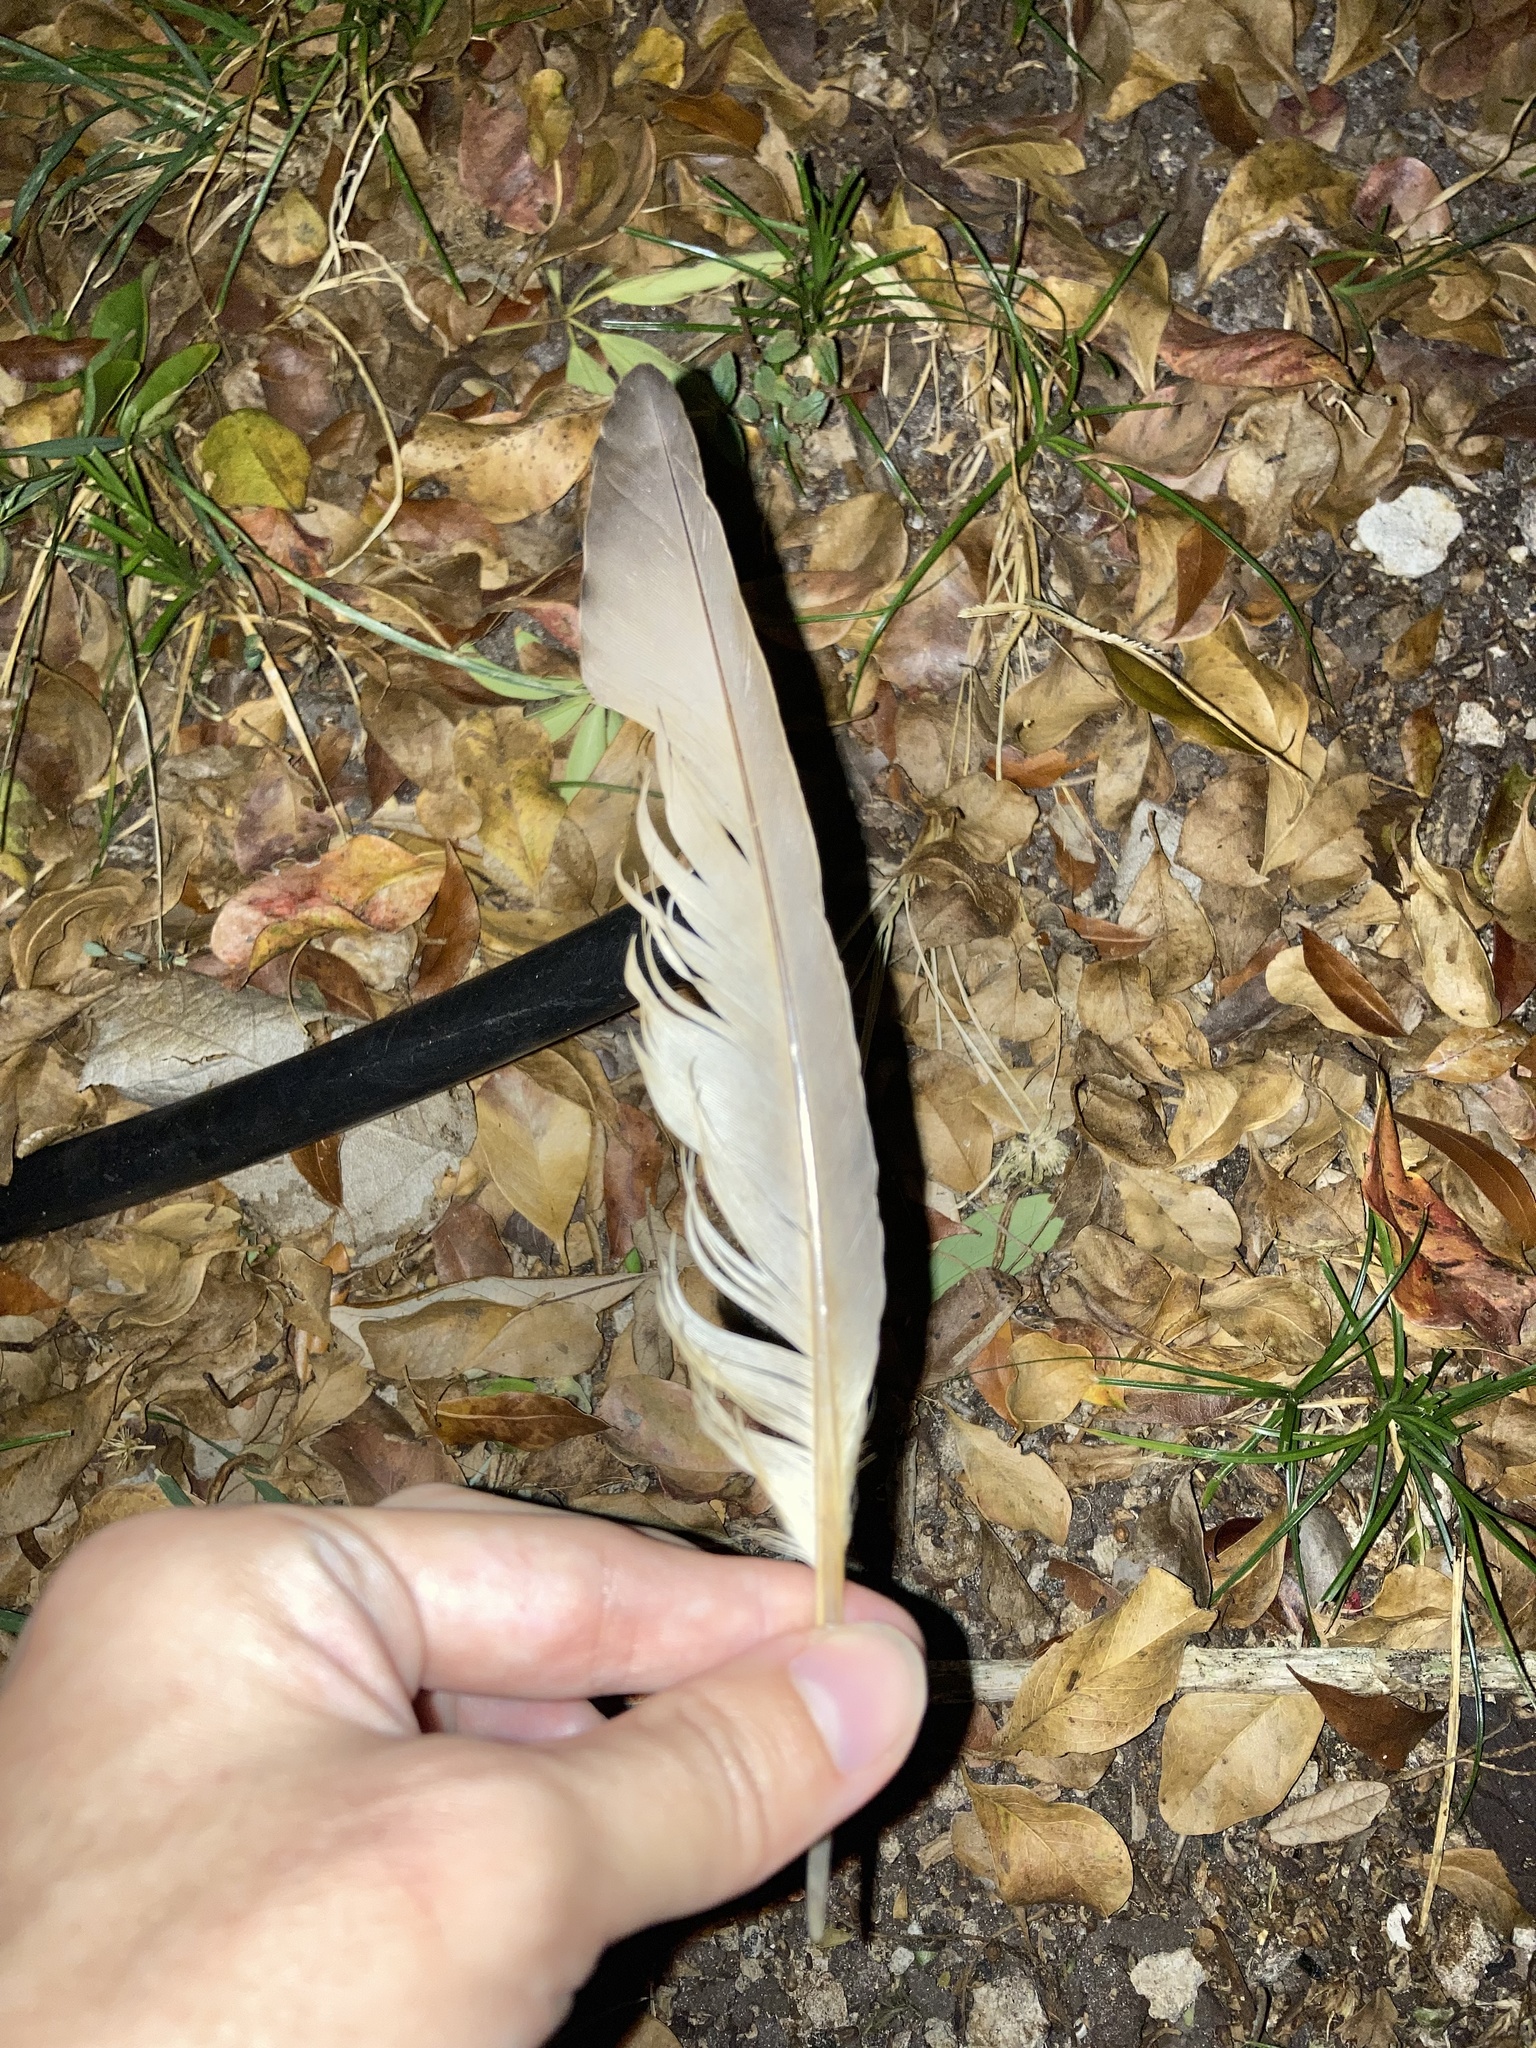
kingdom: Animalia
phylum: Chordata
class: Aves
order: Columbiformes
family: Columbidae
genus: Columba
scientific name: Columba livia
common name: Rock pigeon
